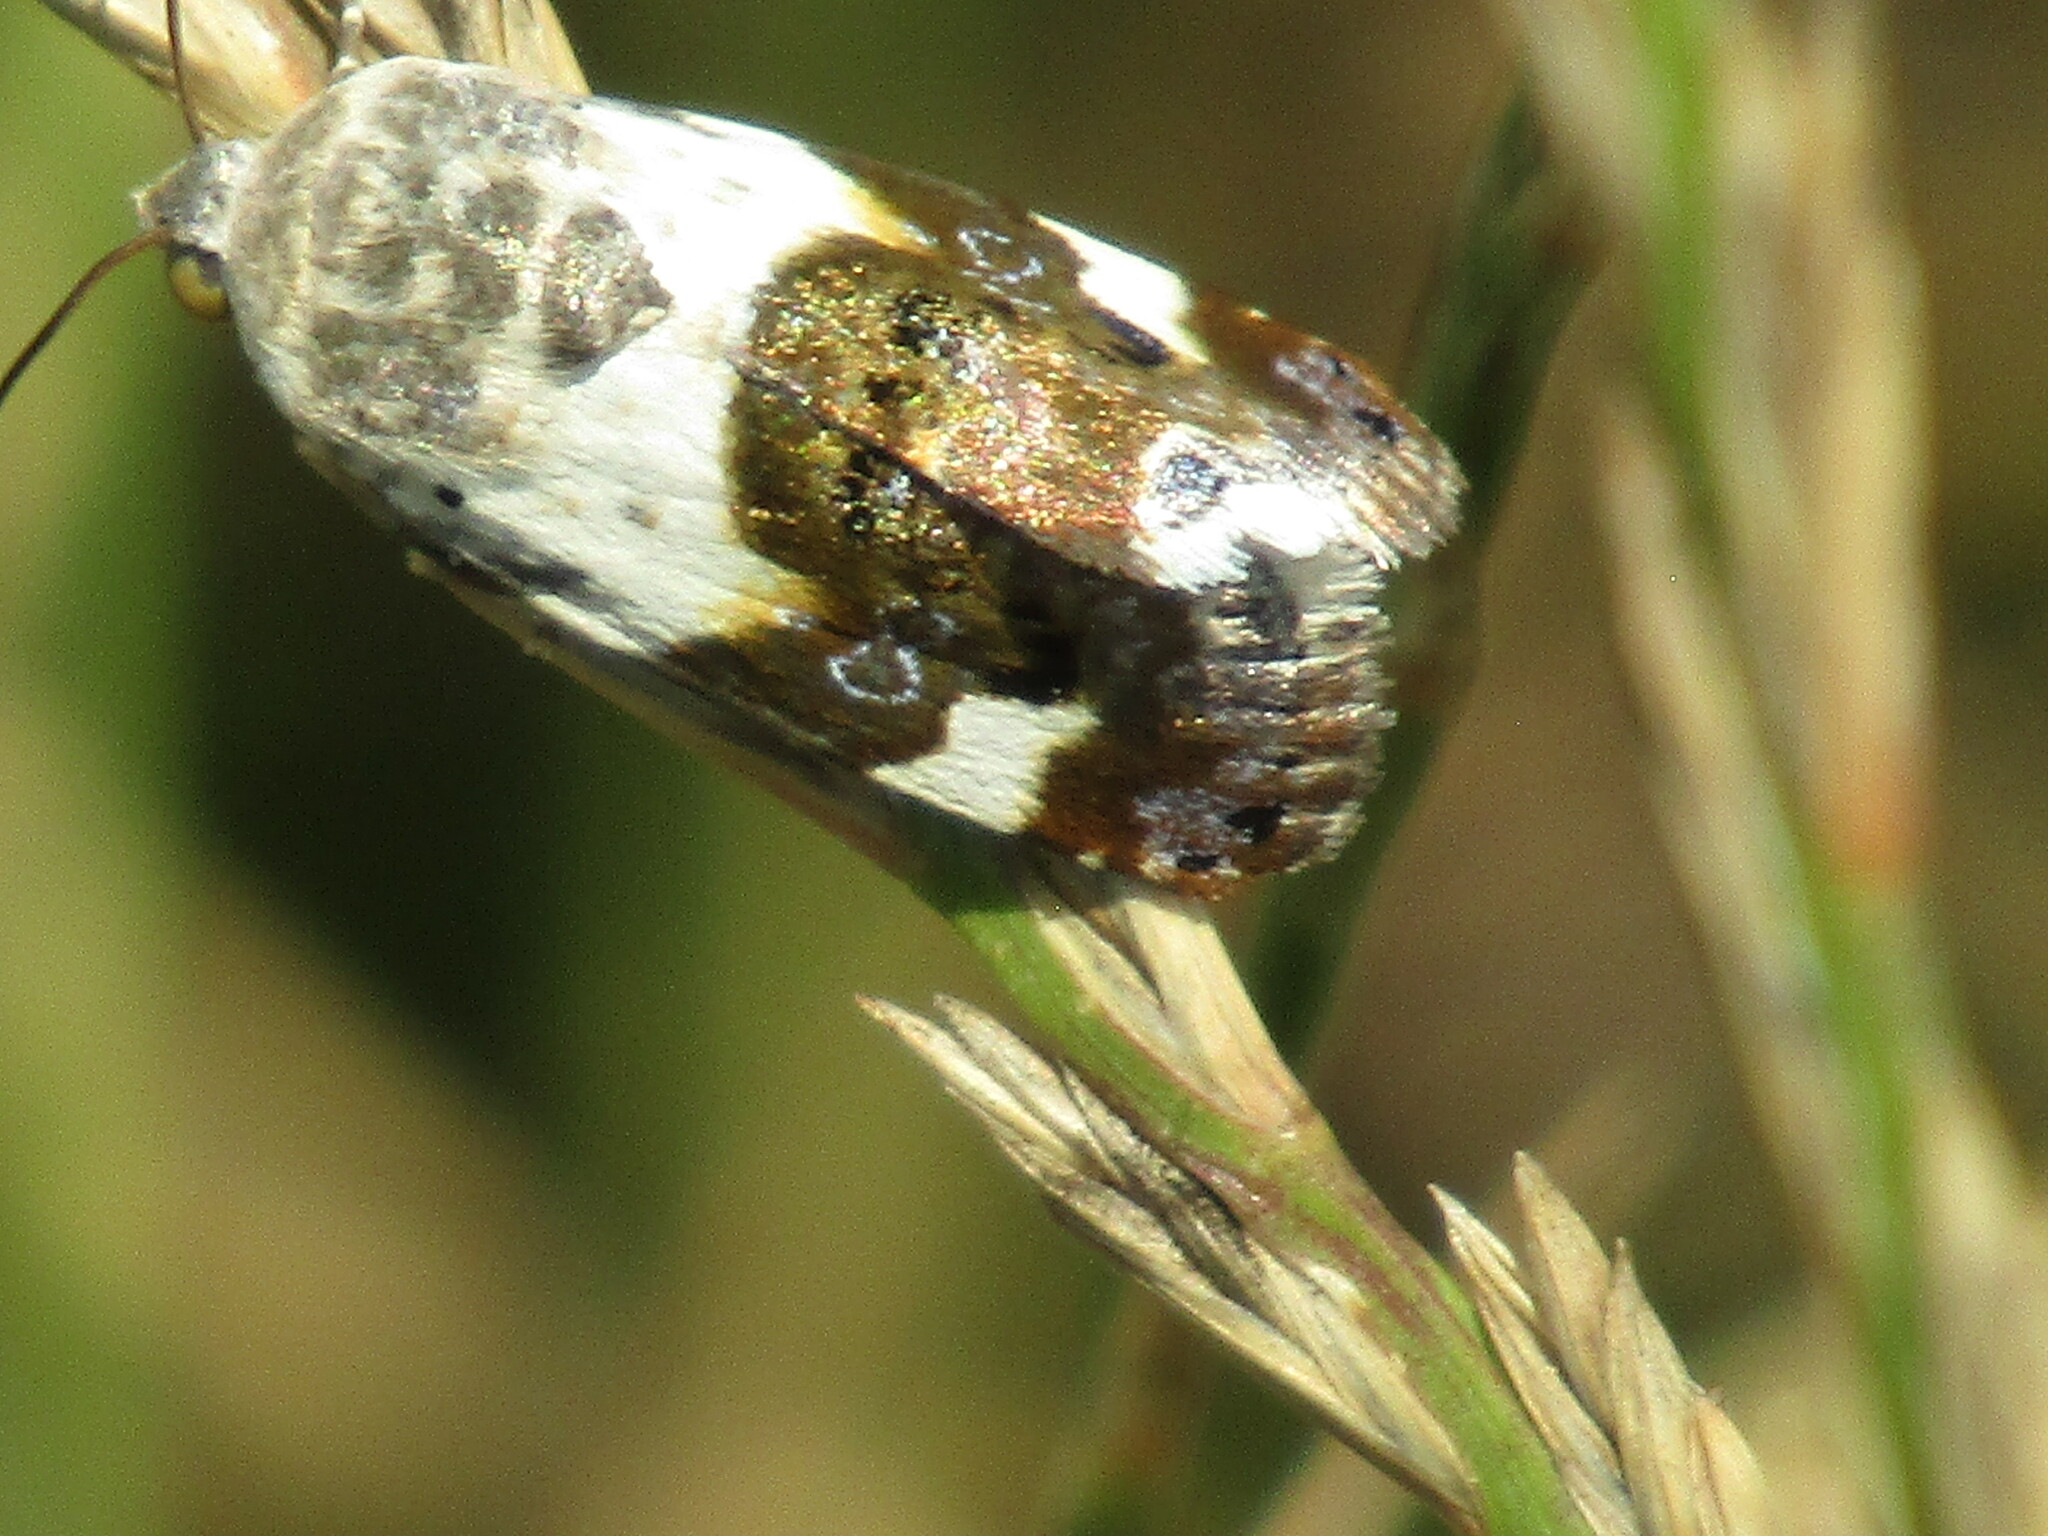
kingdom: Animalia
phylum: Arthropoda
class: Insecta
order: Lepidoptera
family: Noctuidae
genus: Acontia
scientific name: Acontia lucida
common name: Pale shoulder
